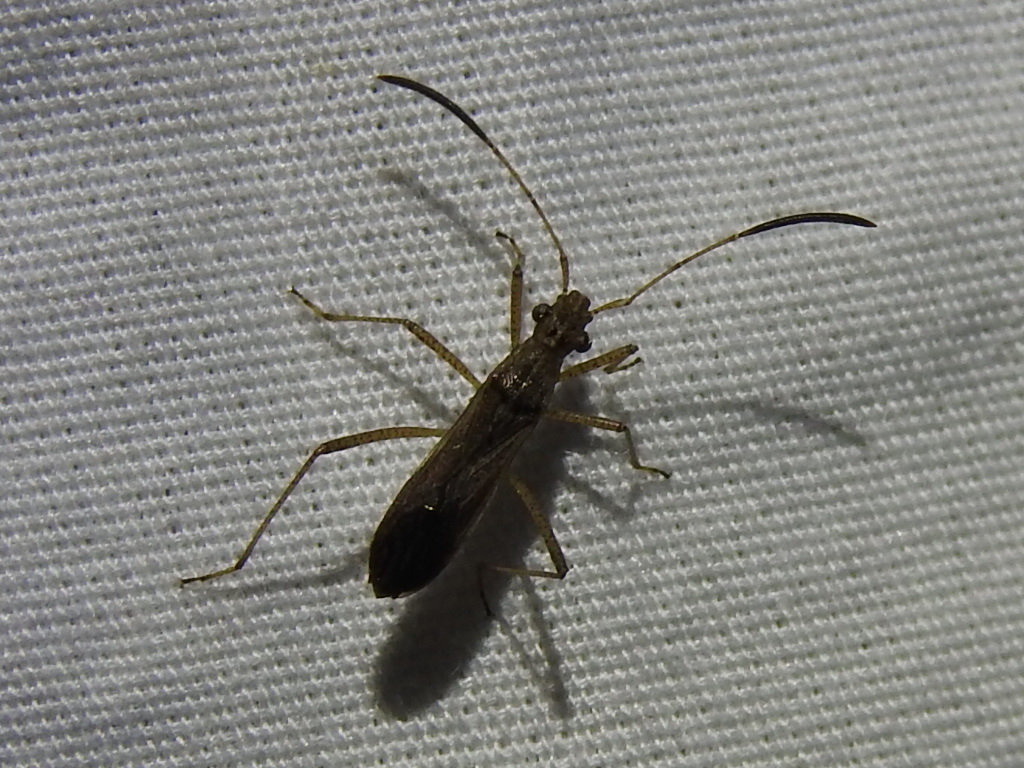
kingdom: Animalia
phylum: Arthropoda
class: Insecta
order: Hemiptera
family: Alydidae
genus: Esperanza
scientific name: Esperanza texana
